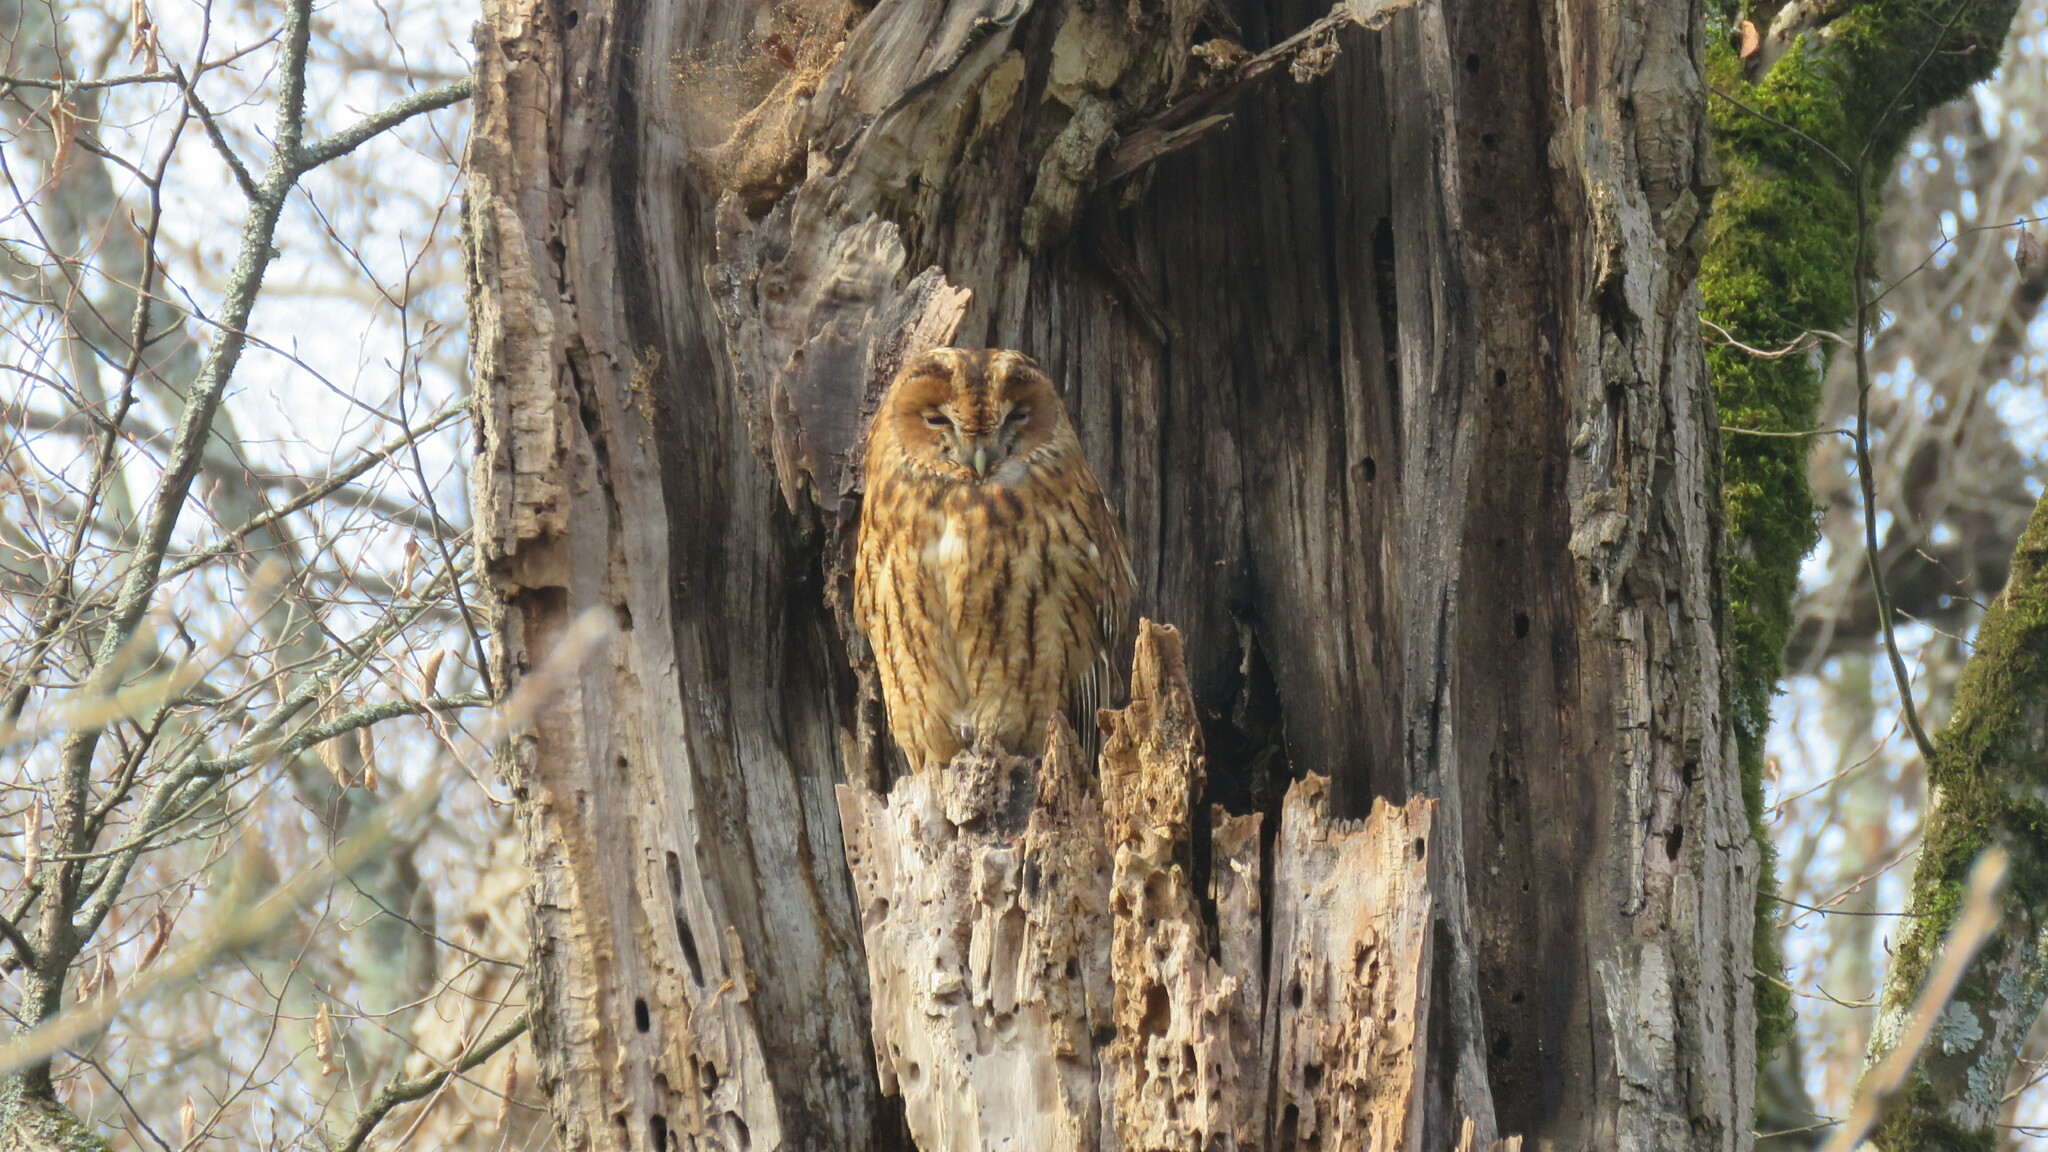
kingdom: Animalia
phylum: Chordata
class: Aves
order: Strigiformes
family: Strigidae
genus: Strix
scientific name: Strix aluco
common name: Tawny owl
